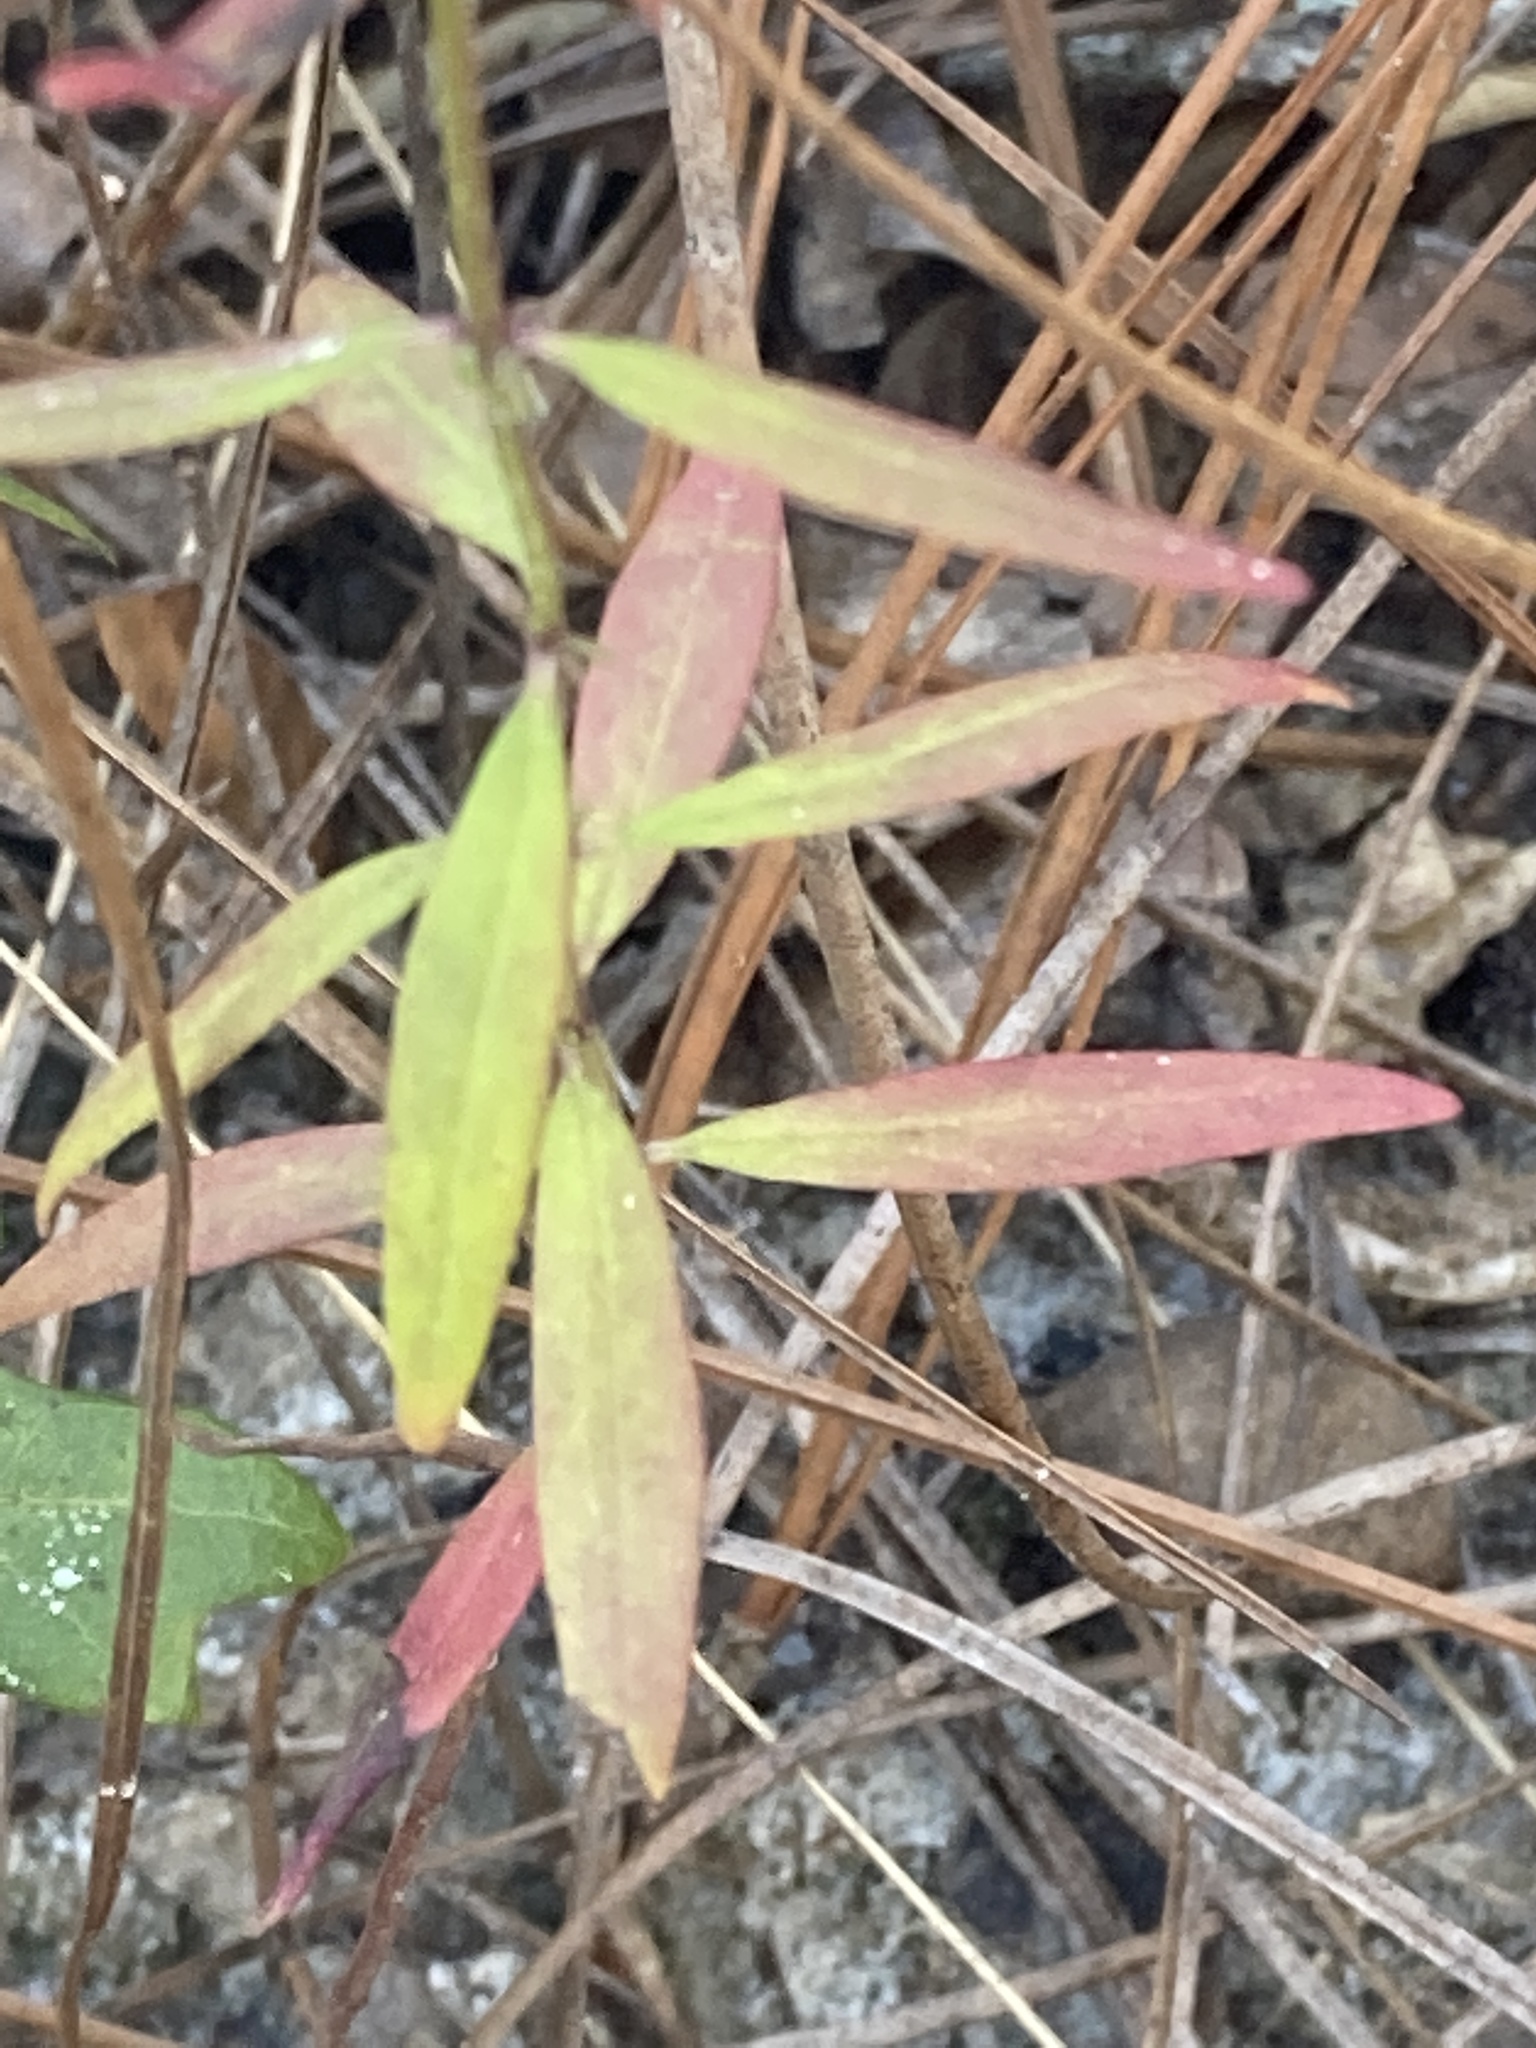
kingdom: Plantae
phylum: Tracheophyta
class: Magnoliopsida
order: Lamiales
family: Lamiaceae
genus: Dicerandra
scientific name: Dicerandra densiflora
